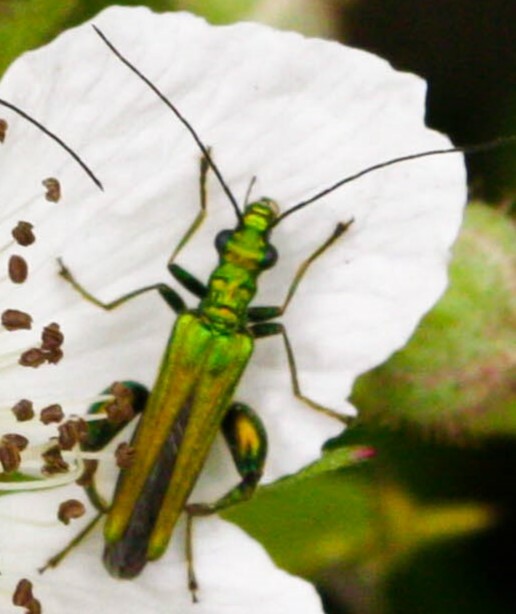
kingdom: Animalia
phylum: Arthropoda
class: Insecta
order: Coleoptera
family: Oedemeridae
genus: Oedemera
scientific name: Oedemera nobilis
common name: Swollen-thighed beetle
